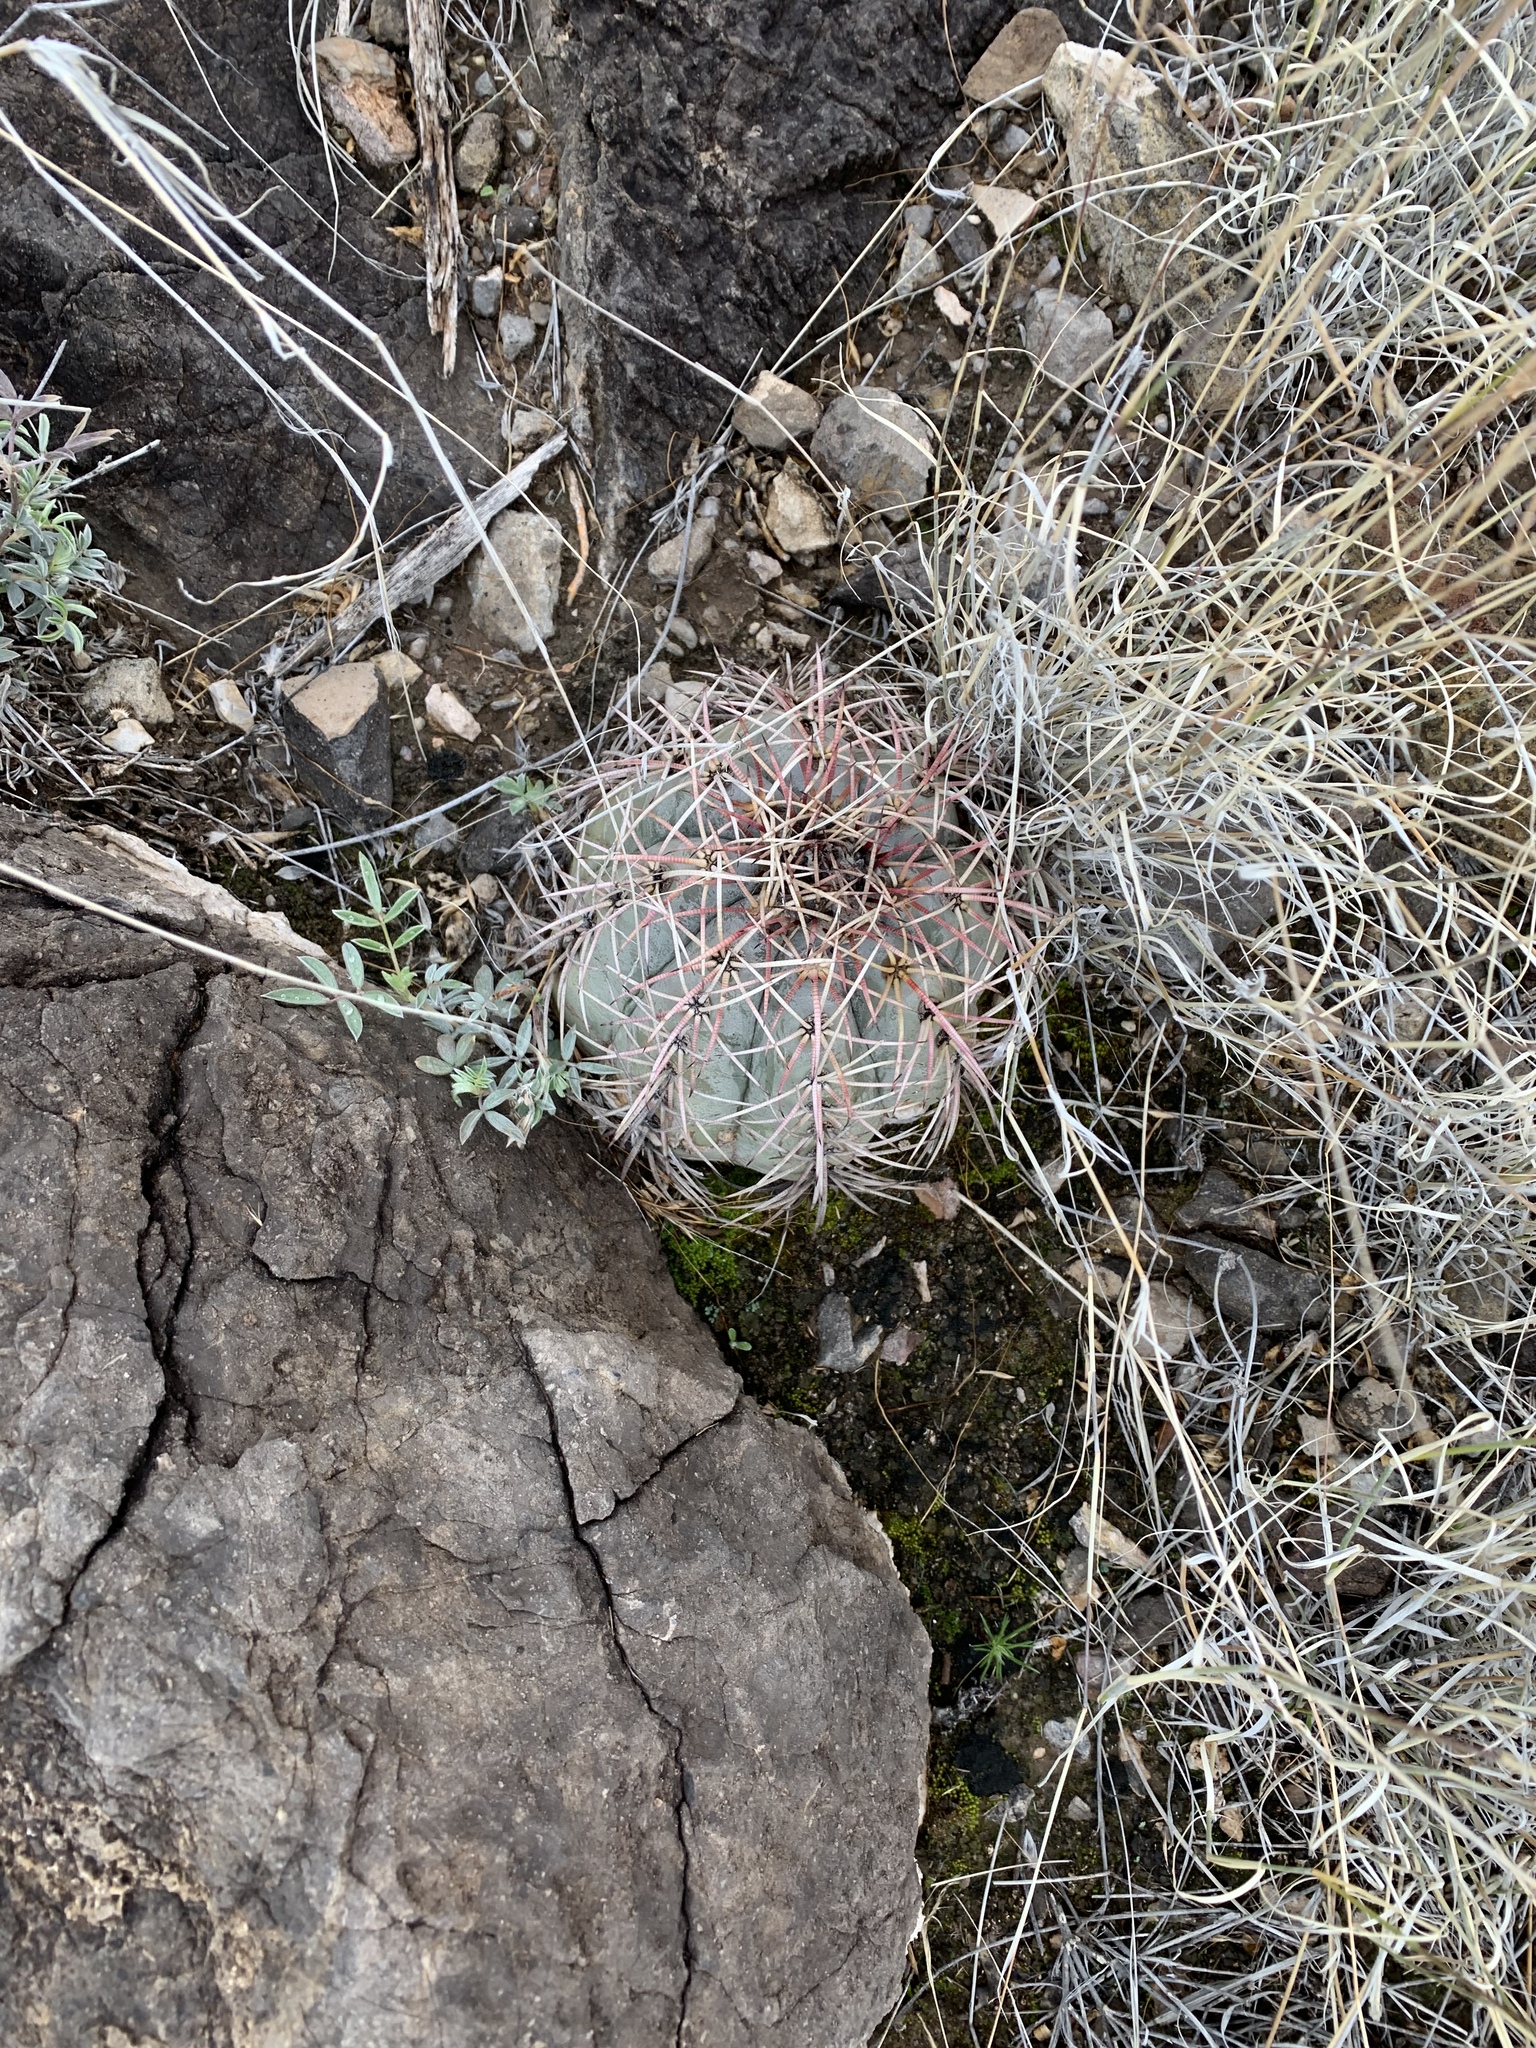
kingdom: Plantae
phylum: Tracheophyta
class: Magnoliopsida
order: Caryophyllales
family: Cactaceae
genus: Echinocactus
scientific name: Echinocactus horizonthalonius
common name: Devilshead
